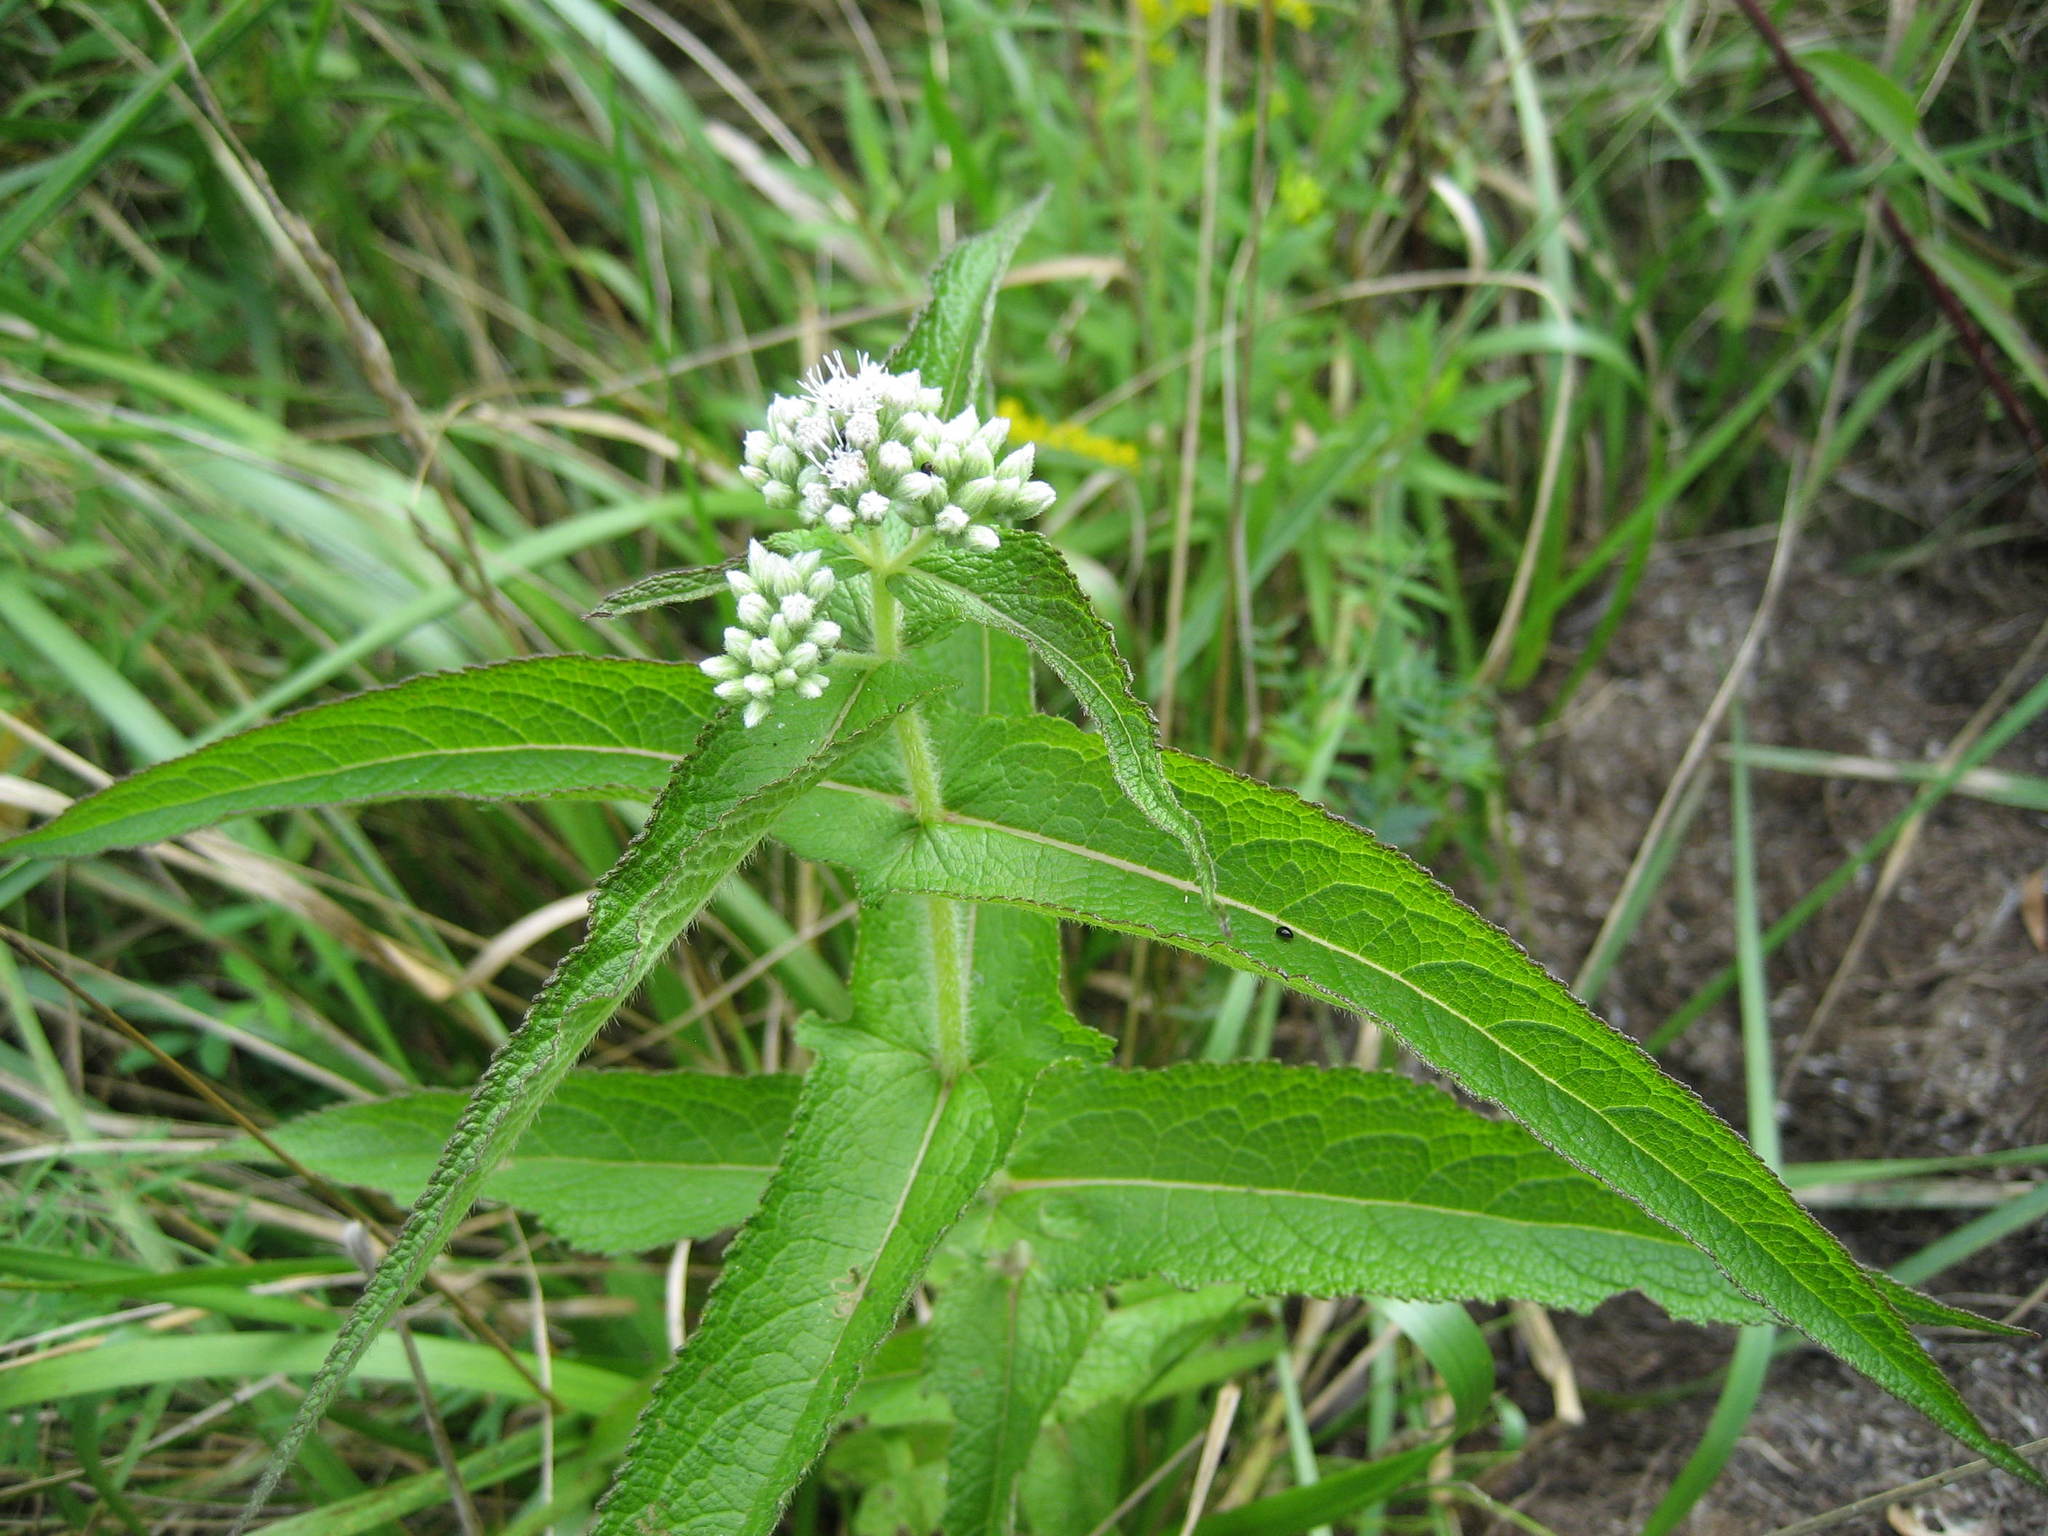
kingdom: Plantae
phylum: Tracheophyta
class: Magnoliopsida
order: Asterales
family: Asteraceae
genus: Eupatorium
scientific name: Eupatorium perfoliatum
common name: Boneset
